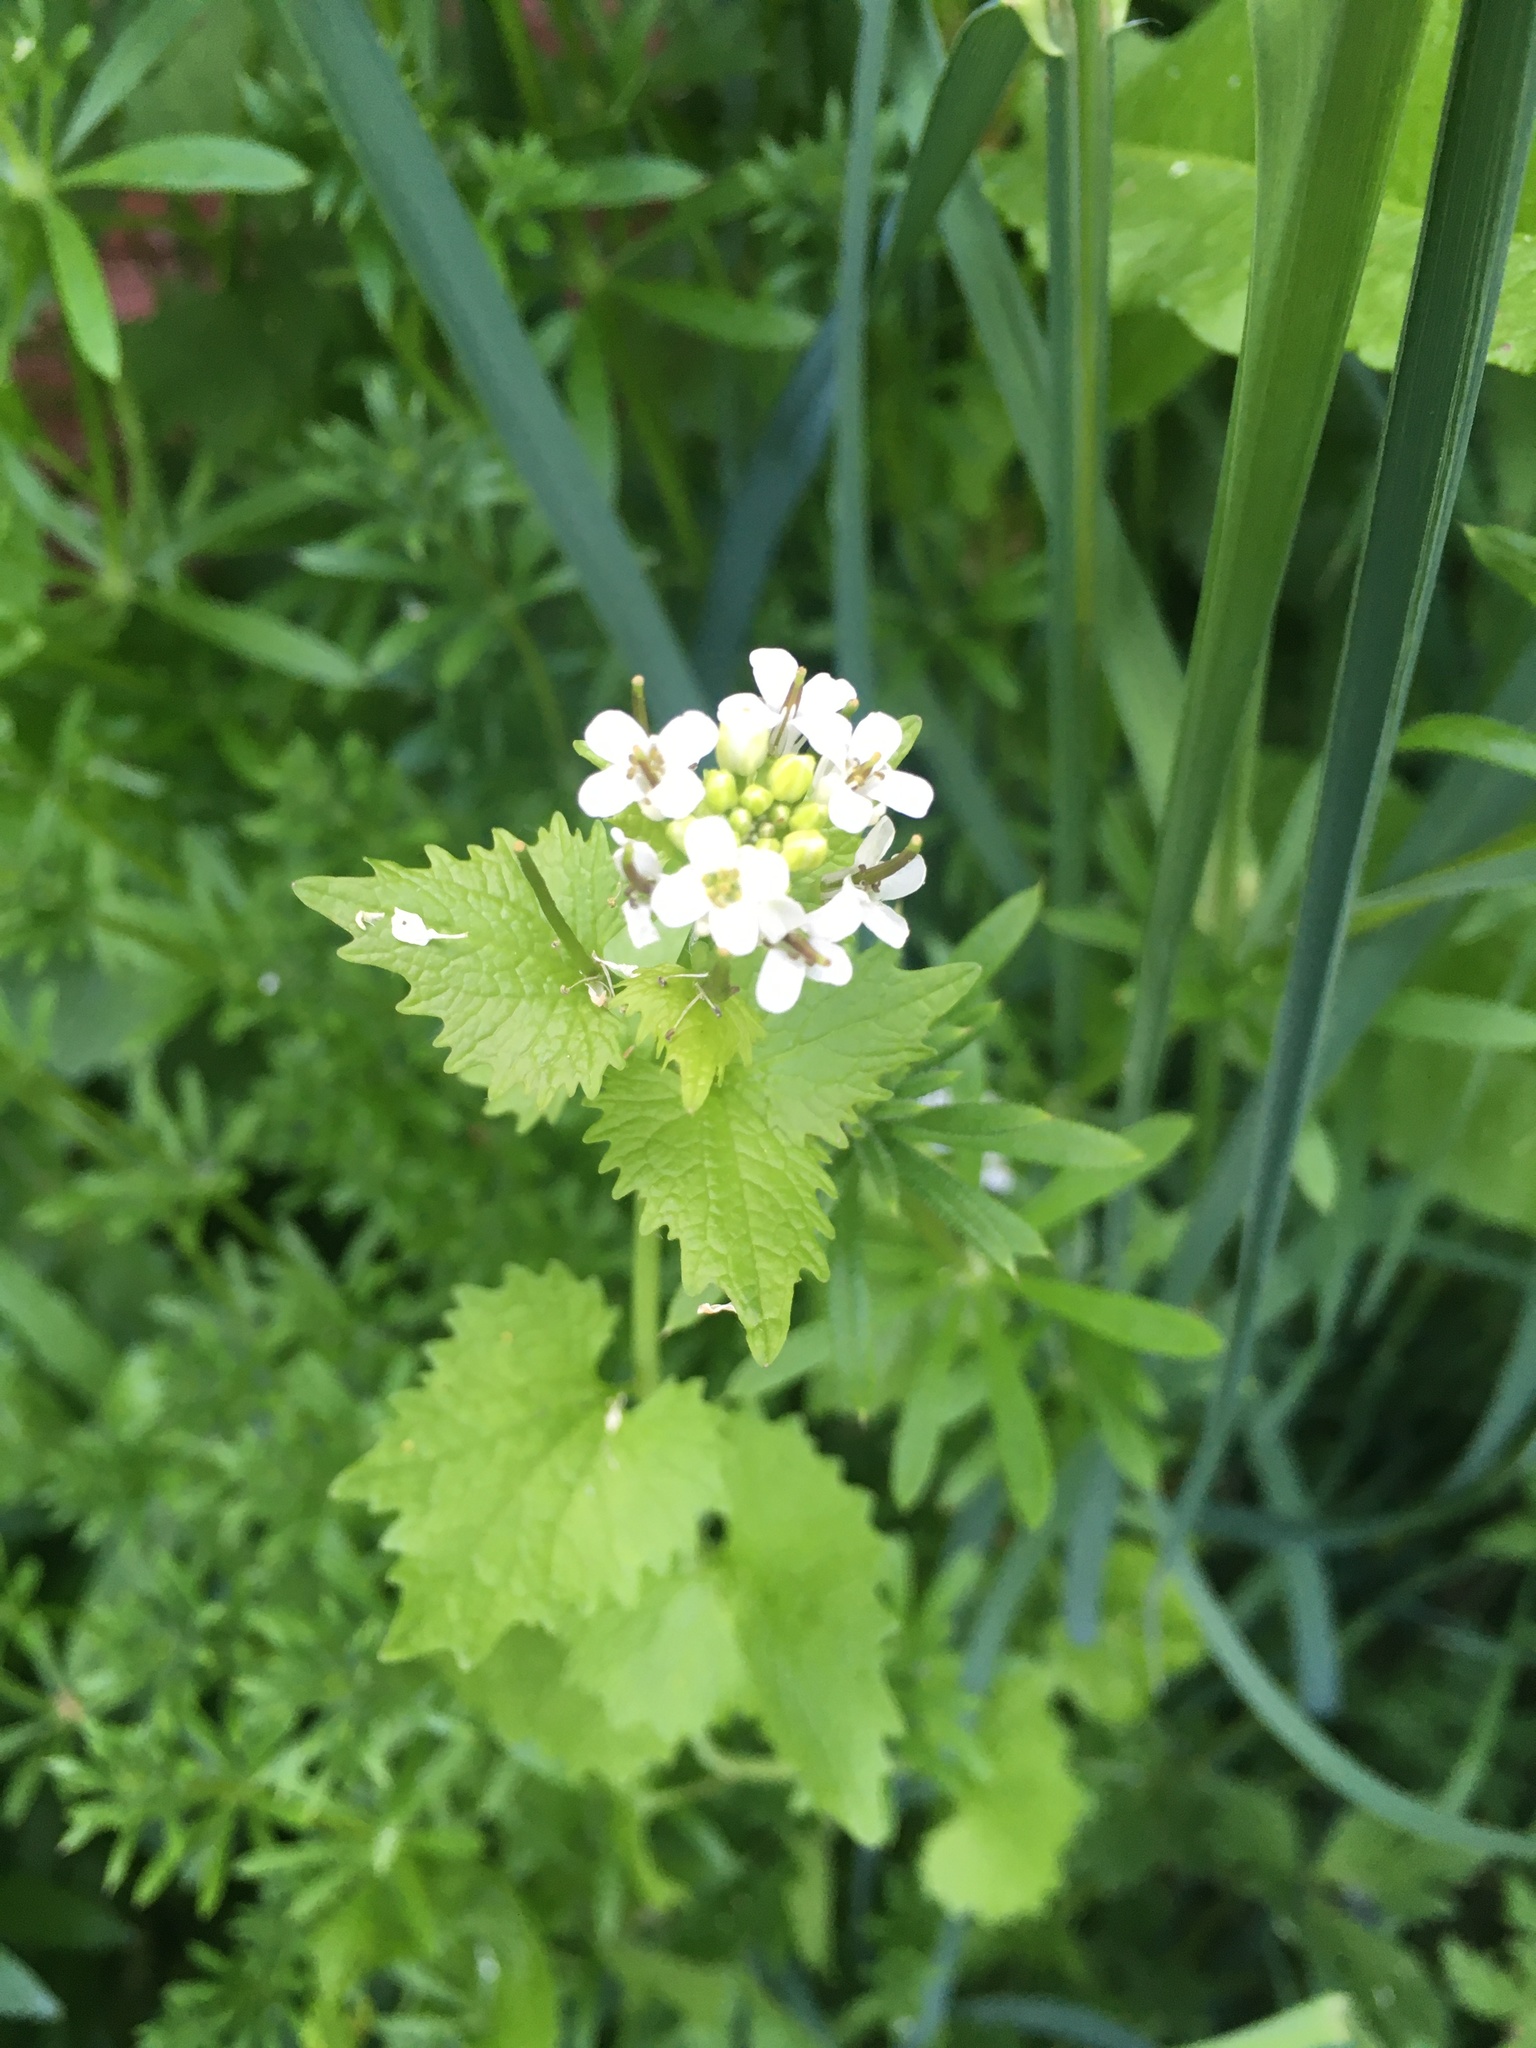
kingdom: Plantae
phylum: Tracheophyta
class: Magnoliopsida
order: Brassicales
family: Brassicaceae
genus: Alliaria
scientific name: Alliaria petiolata
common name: Garlic mustard
